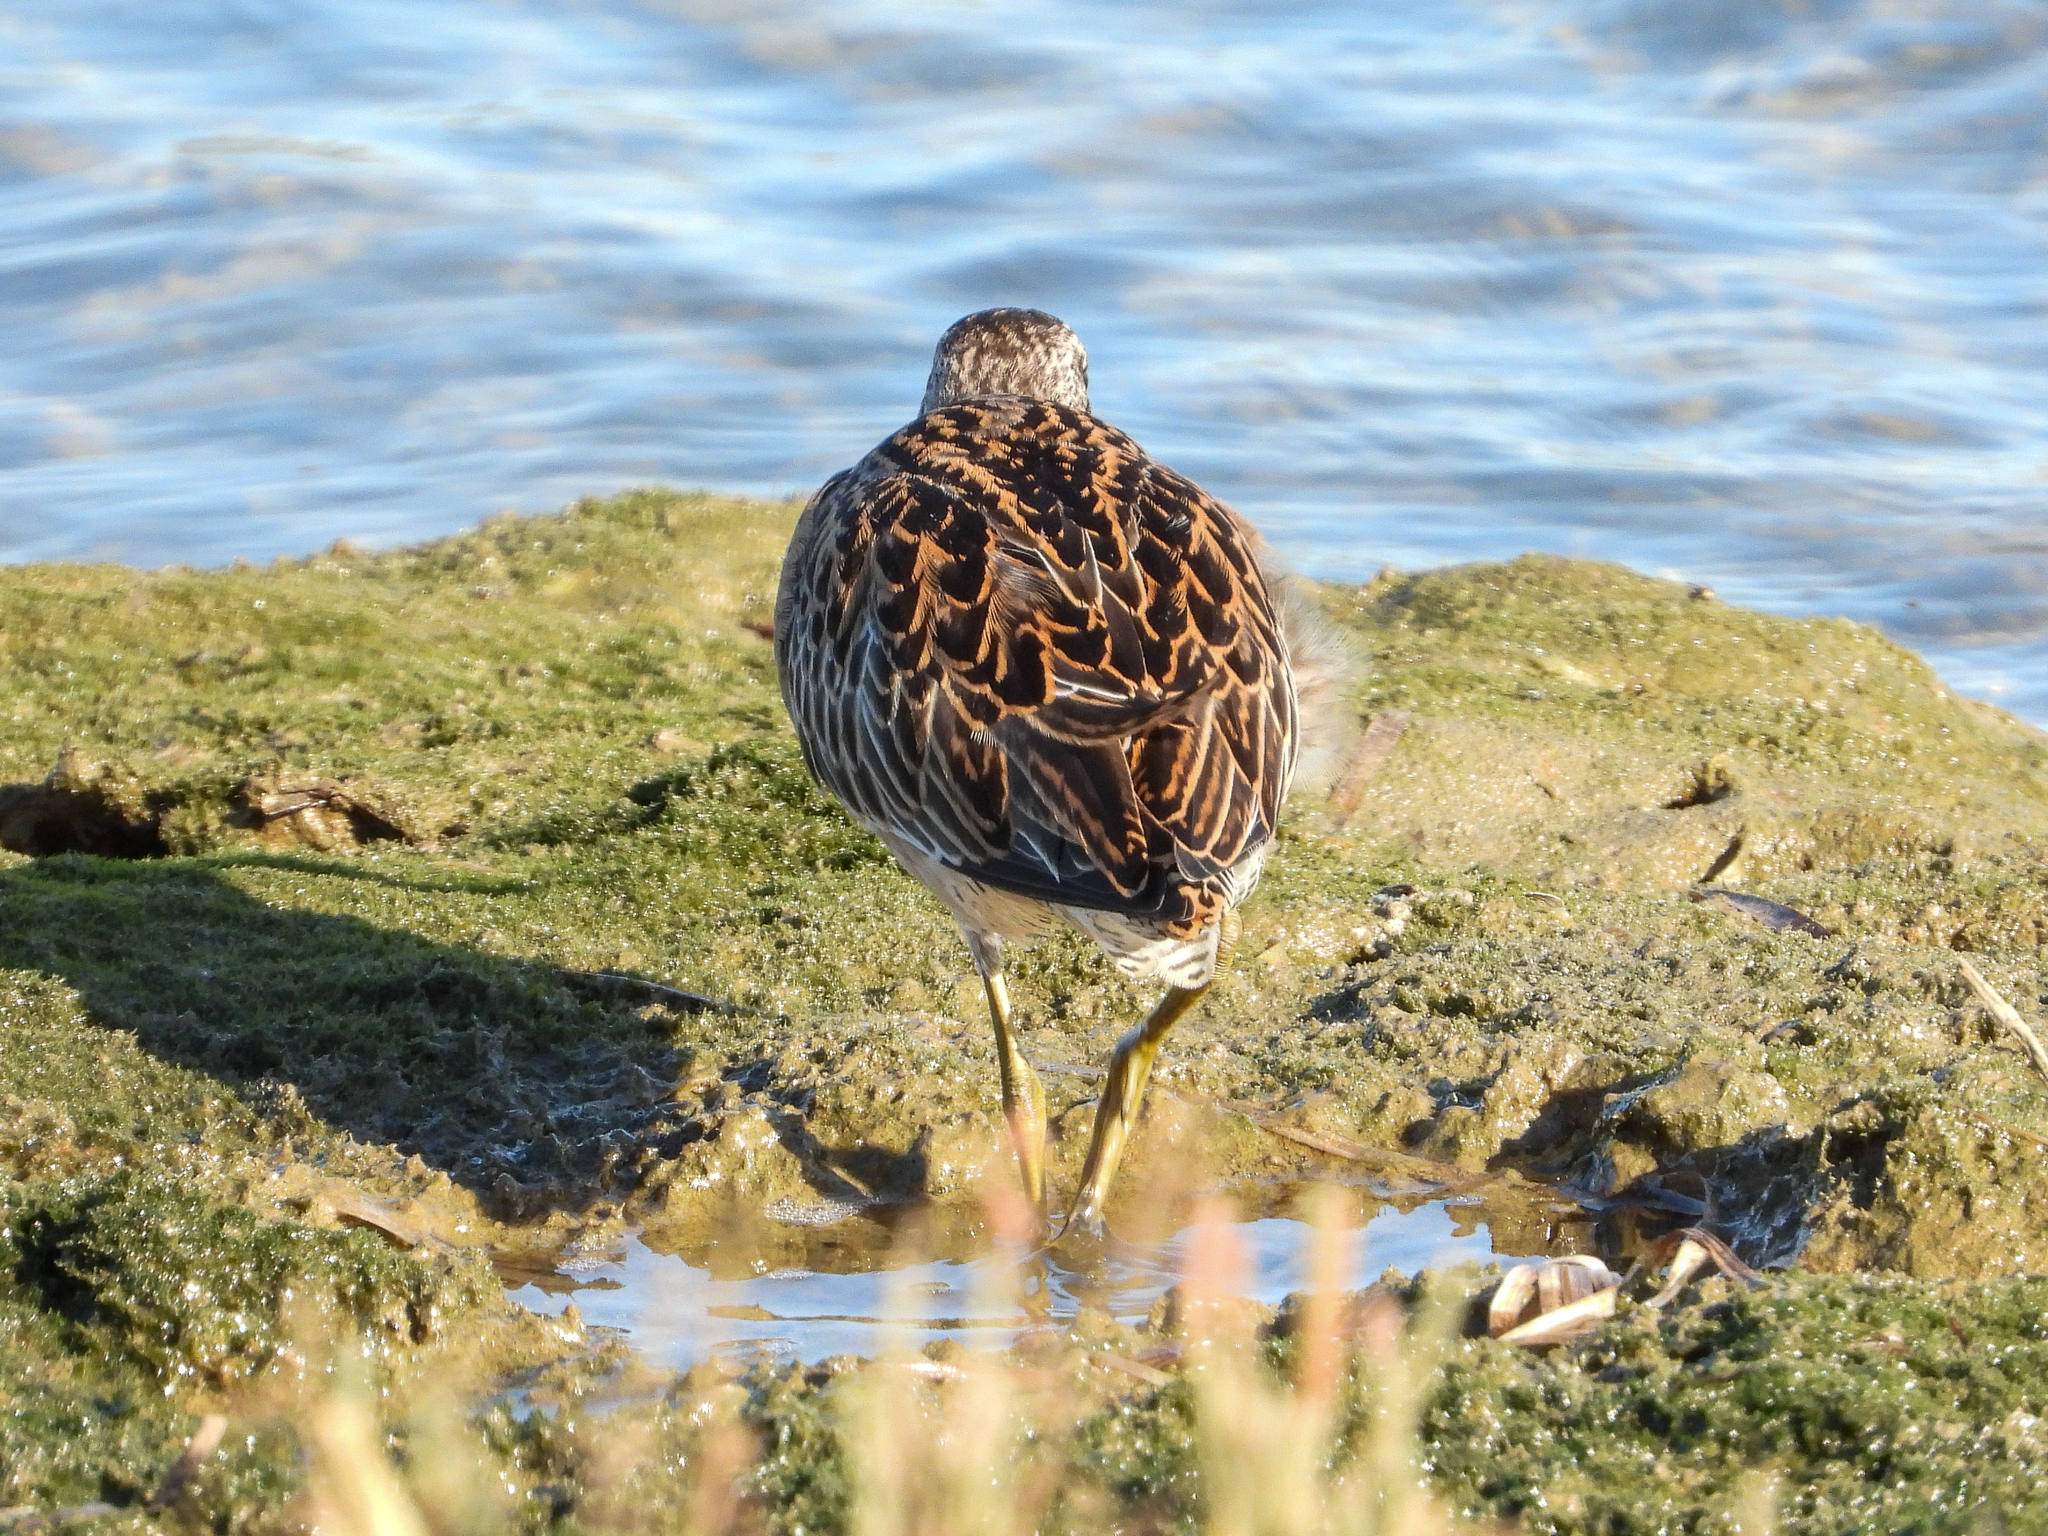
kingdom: Animalia
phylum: Chordata
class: Aves
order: Charadriiformes
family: Scolopacidae
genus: Limnodromus
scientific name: Limnodromus griseus
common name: Short-billed dowitcher
